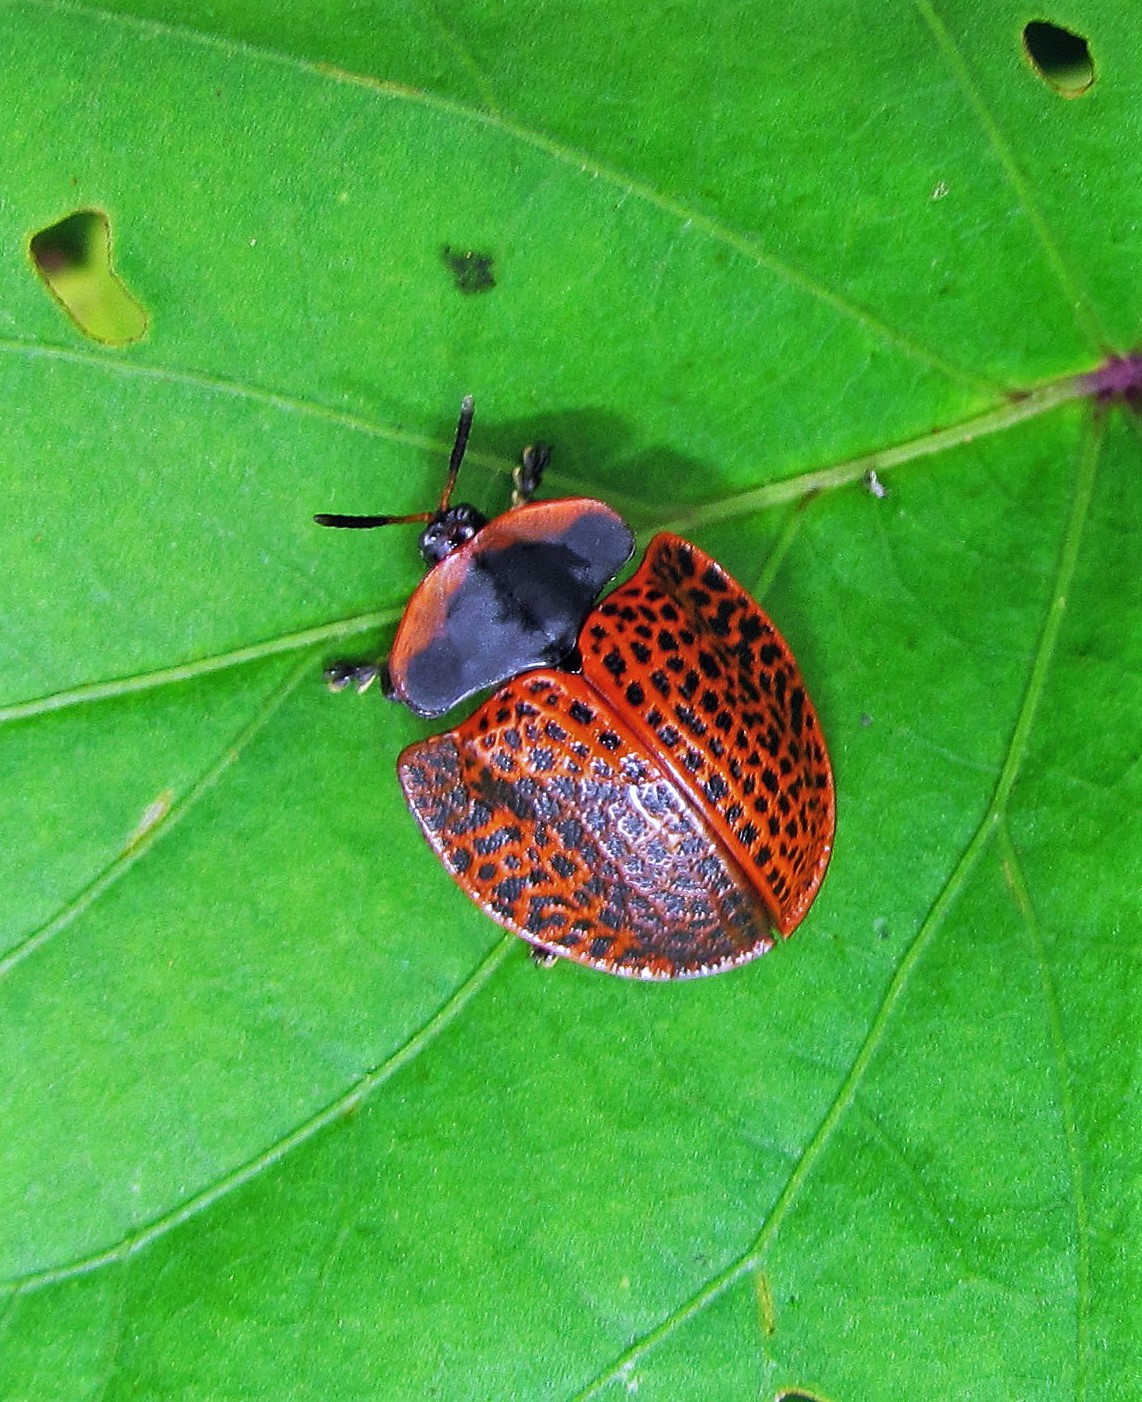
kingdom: Animalia
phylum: Arthropoda
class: Insecta
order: Coleoptera
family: Chrysomelidae
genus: Botanochara
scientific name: Botanochara macularia
